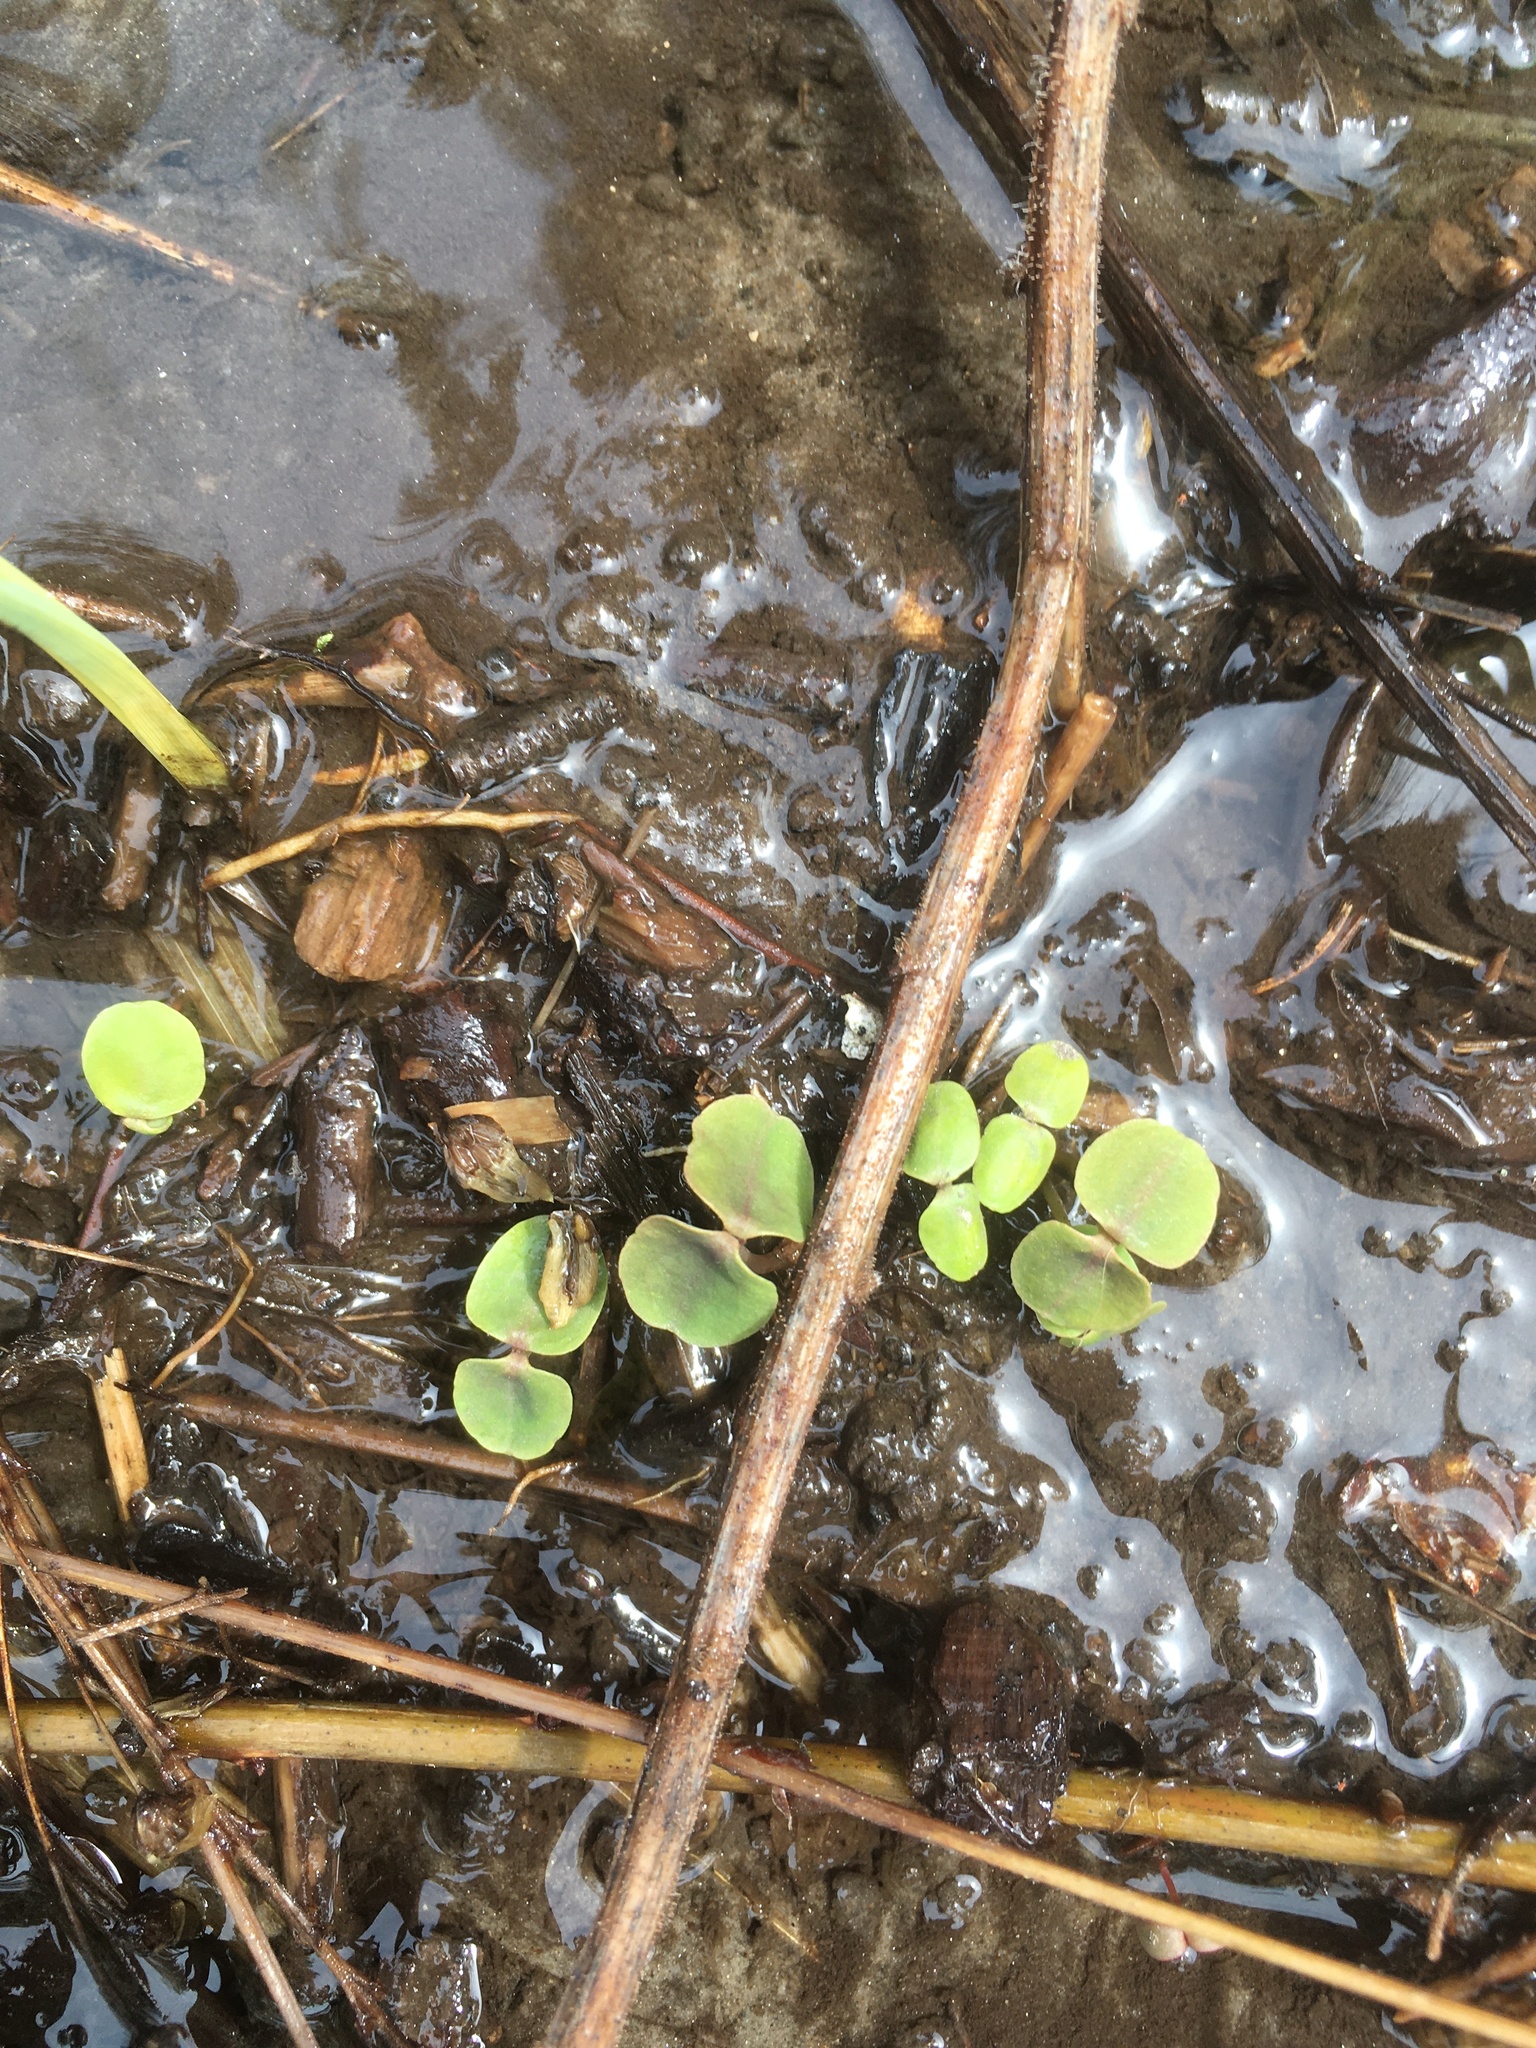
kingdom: Plantae
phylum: Tracheophyta
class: Magnoliopsida
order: Ericales
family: Balsaminaceae
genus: Impatiens
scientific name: Impatiens capensis
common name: Orange balsam
